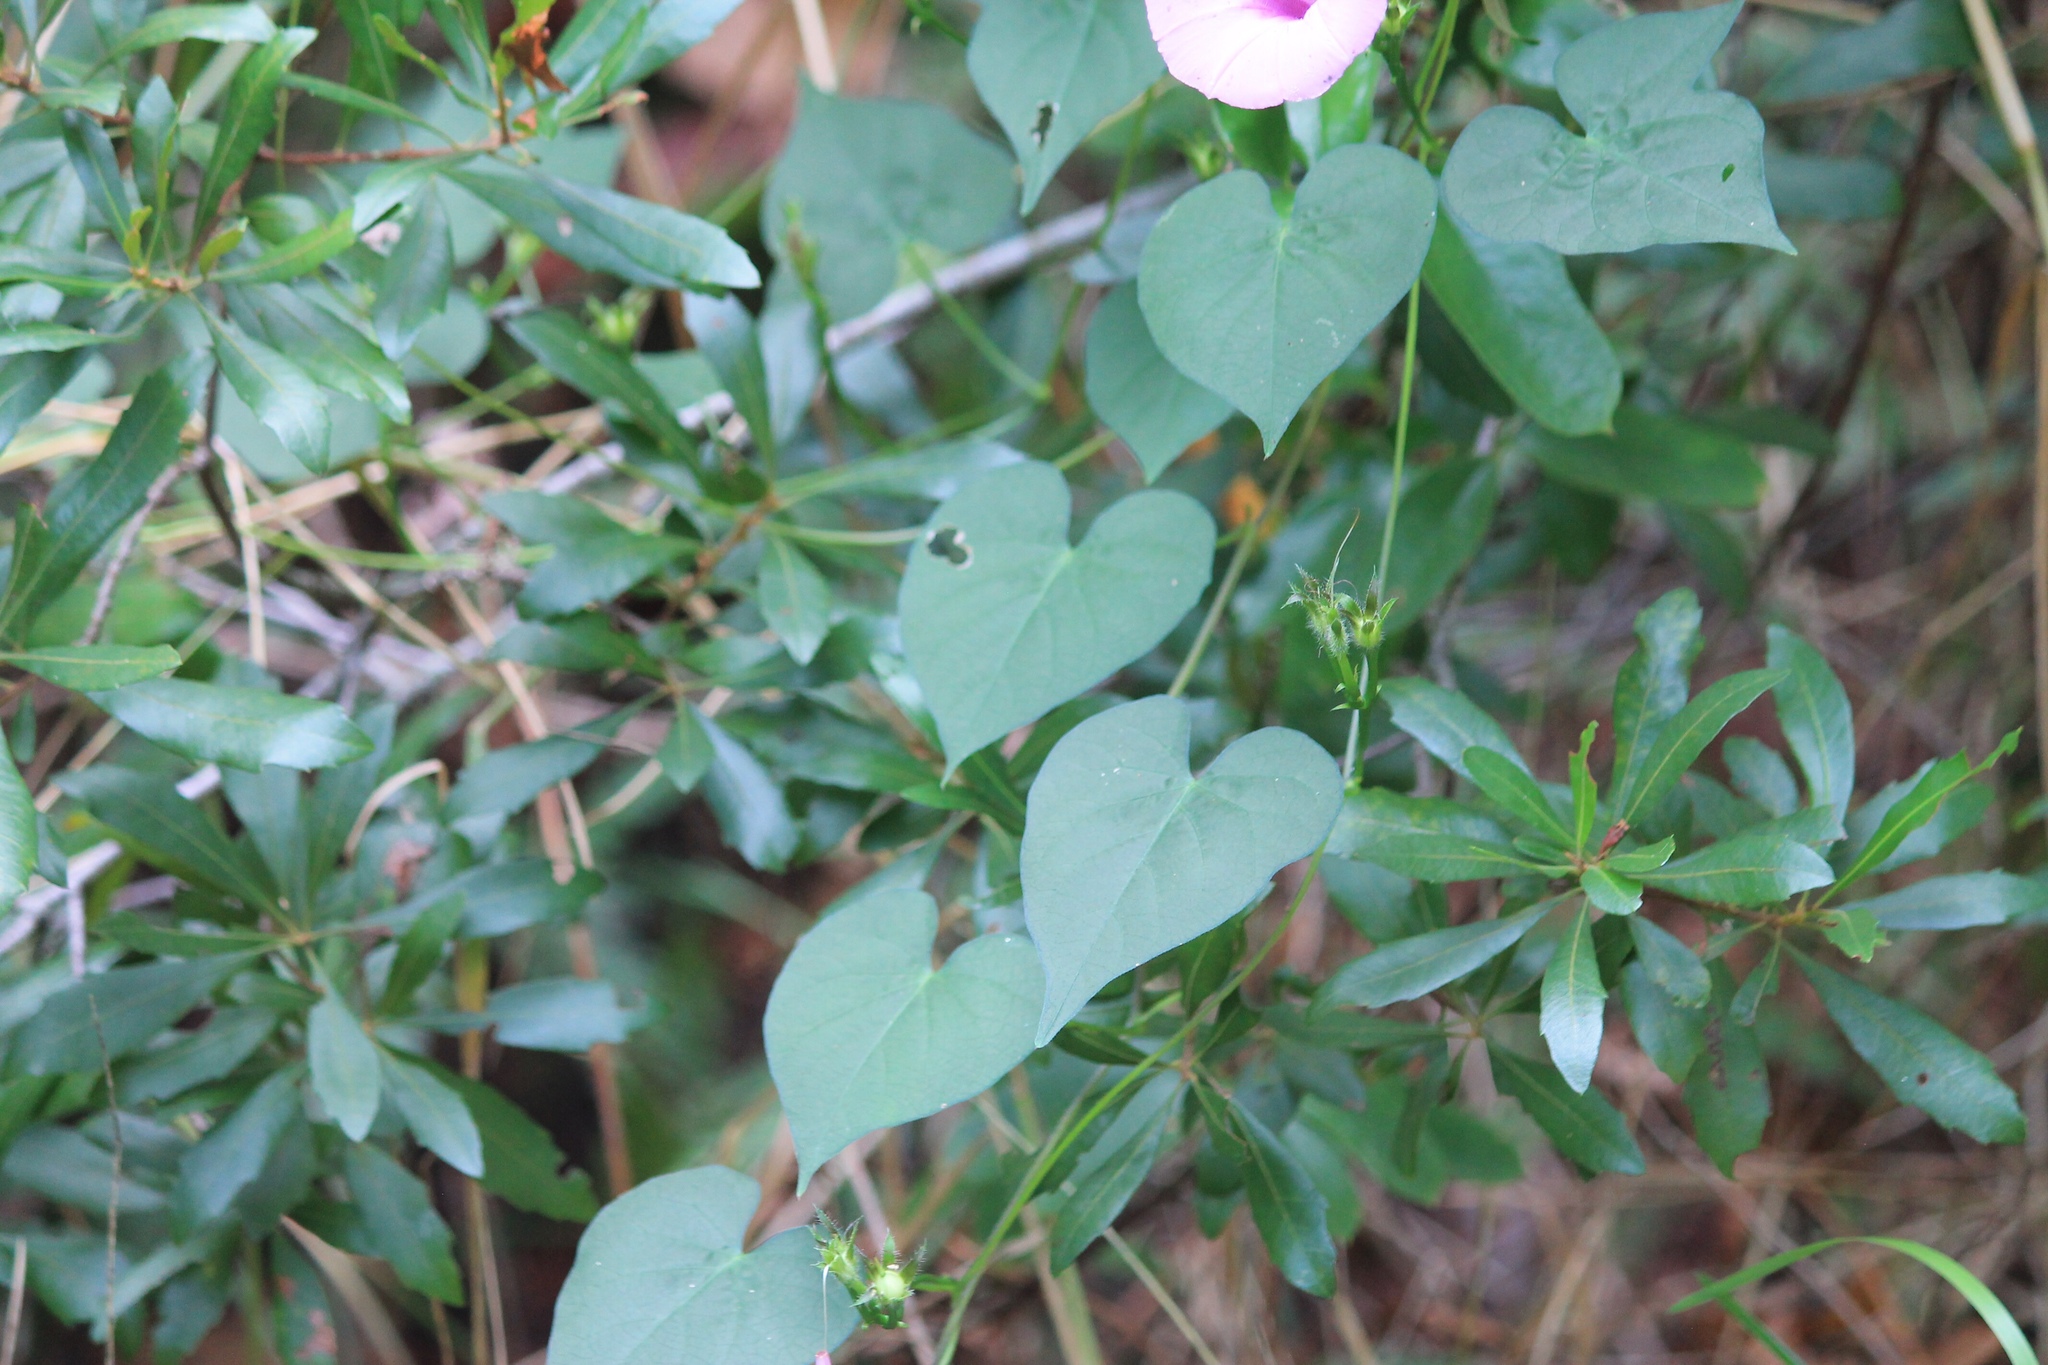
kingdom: Plantae
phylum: Tracheophyta
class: Magnoliopsida
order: Solanales
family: Convolvulaceae
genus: Ipomoea
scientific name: Ipomoea cordatotriloba
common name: Cotton morning glory
